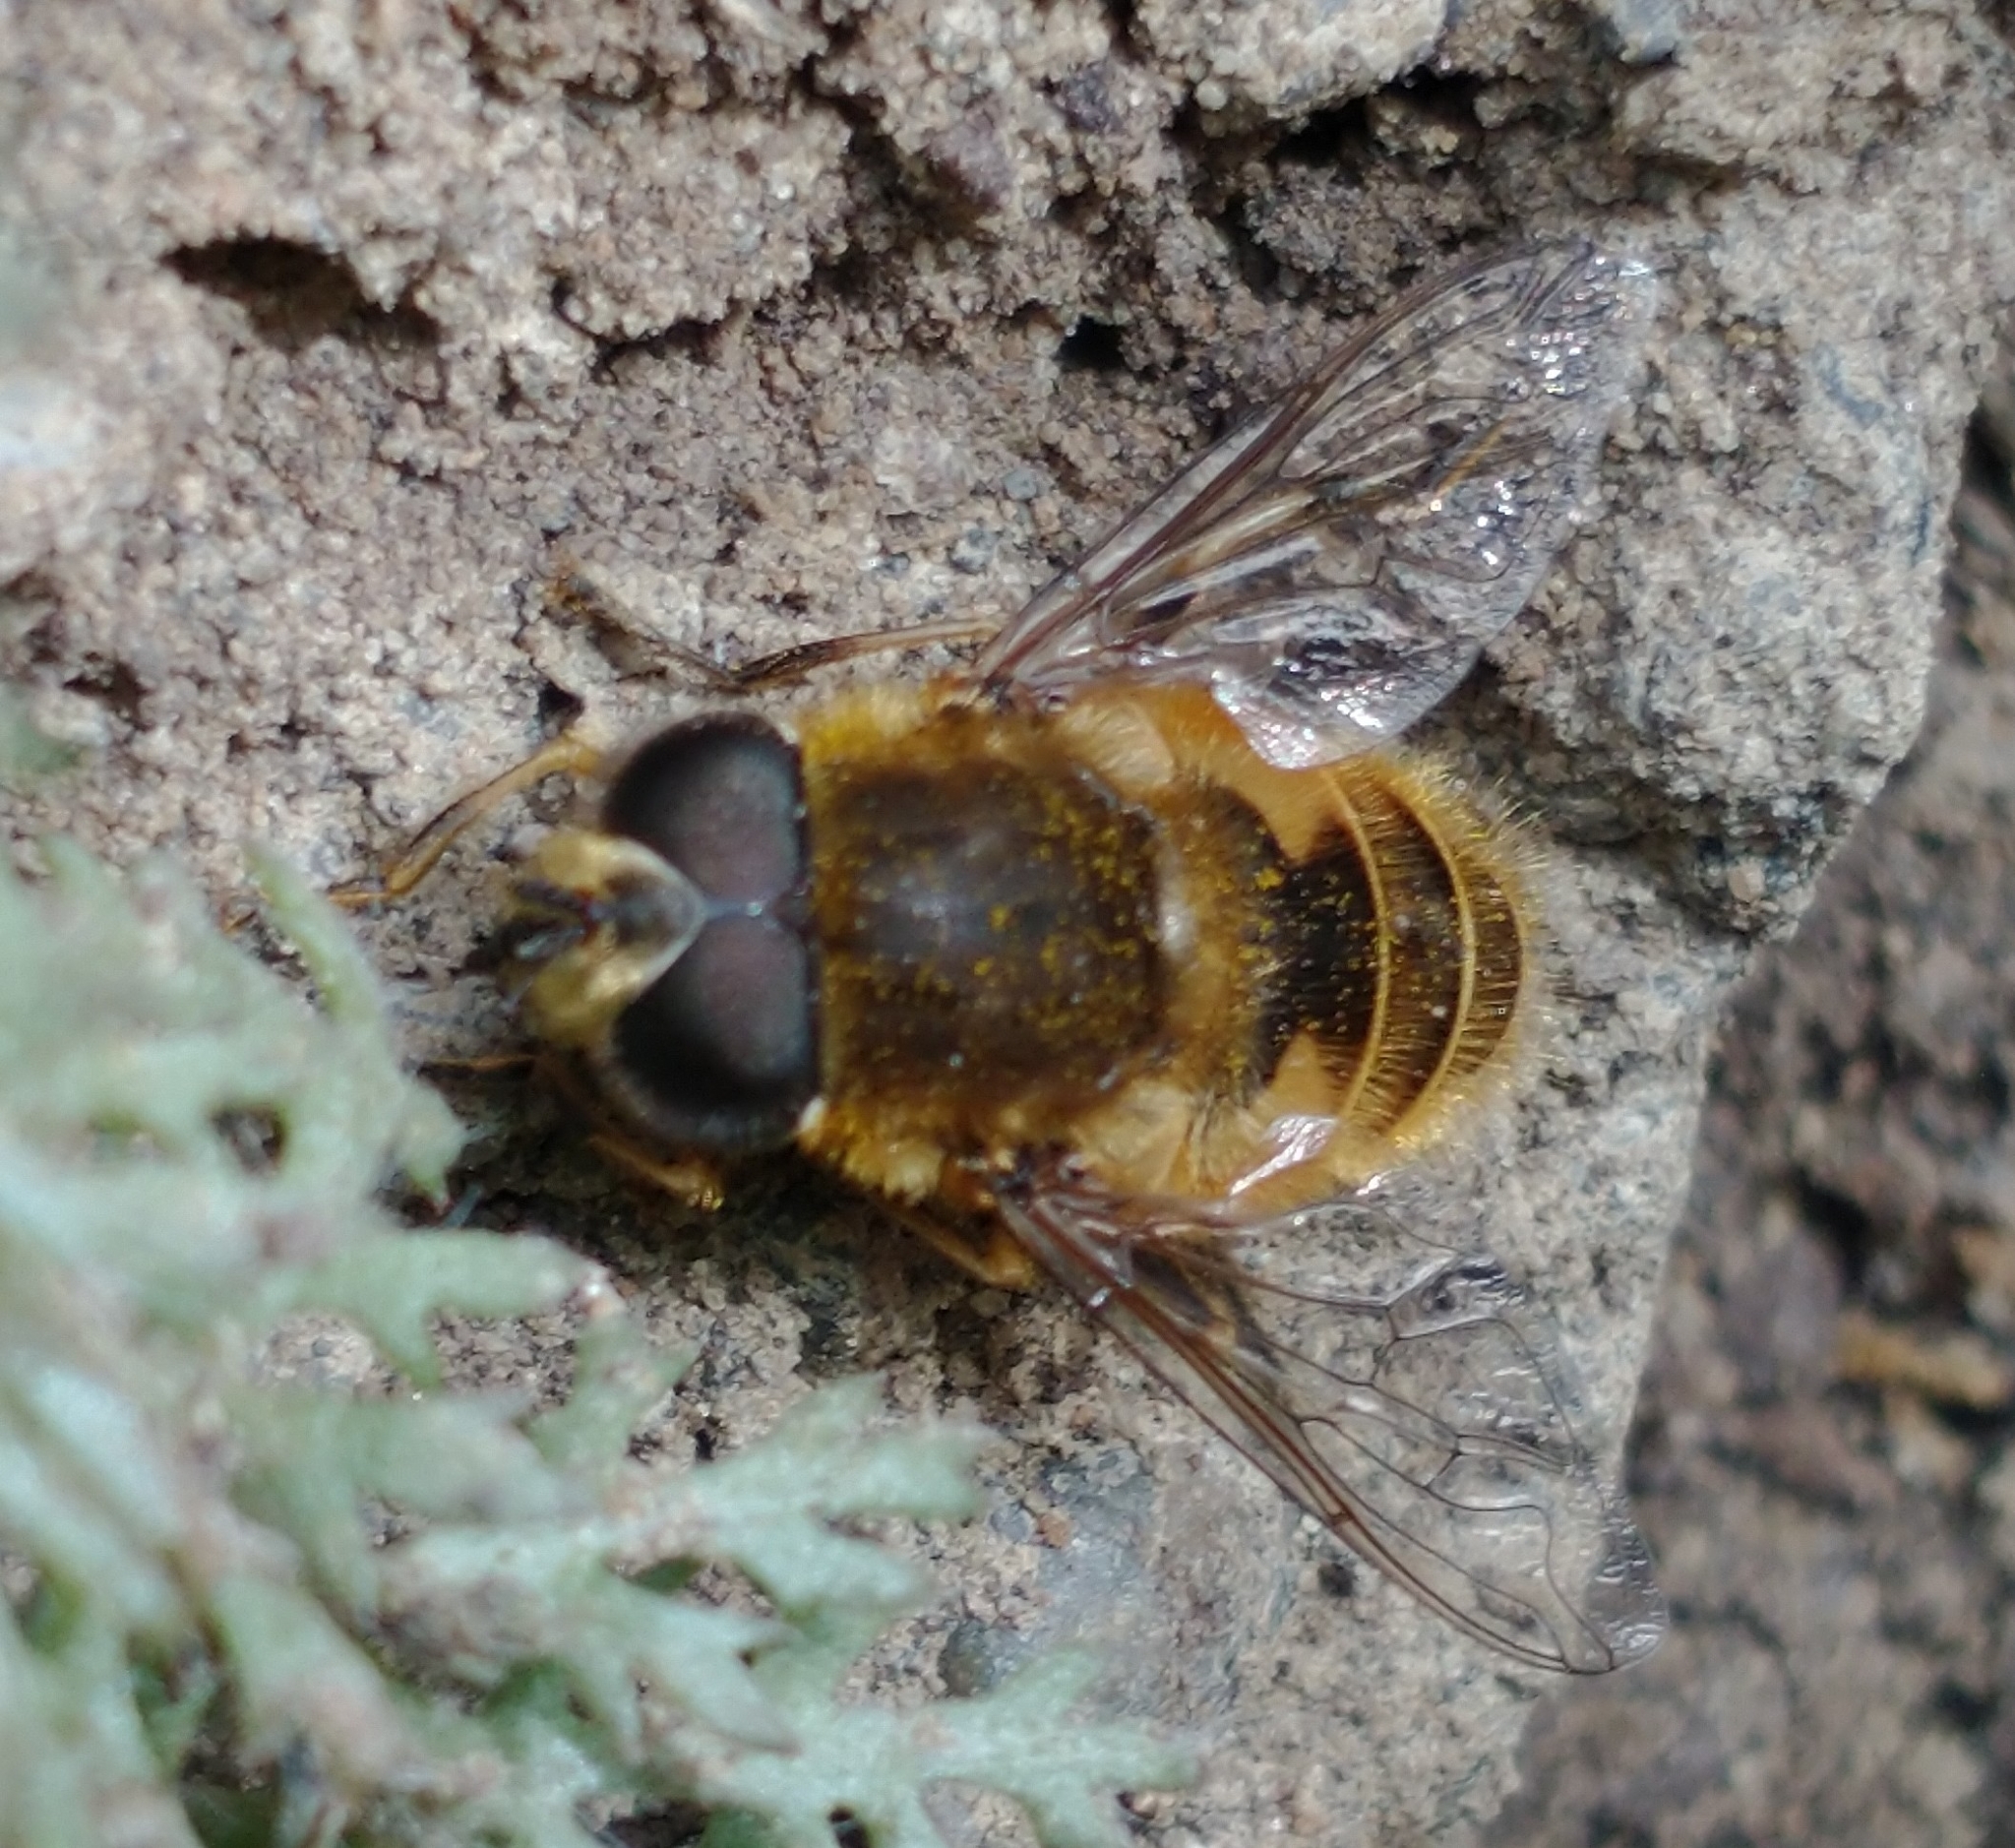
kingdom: Animalia
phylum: Arthropoda
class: Insecta
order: Diptera
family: Syrphidae
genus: Eristalis
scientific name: Eristalis croceimaculata
